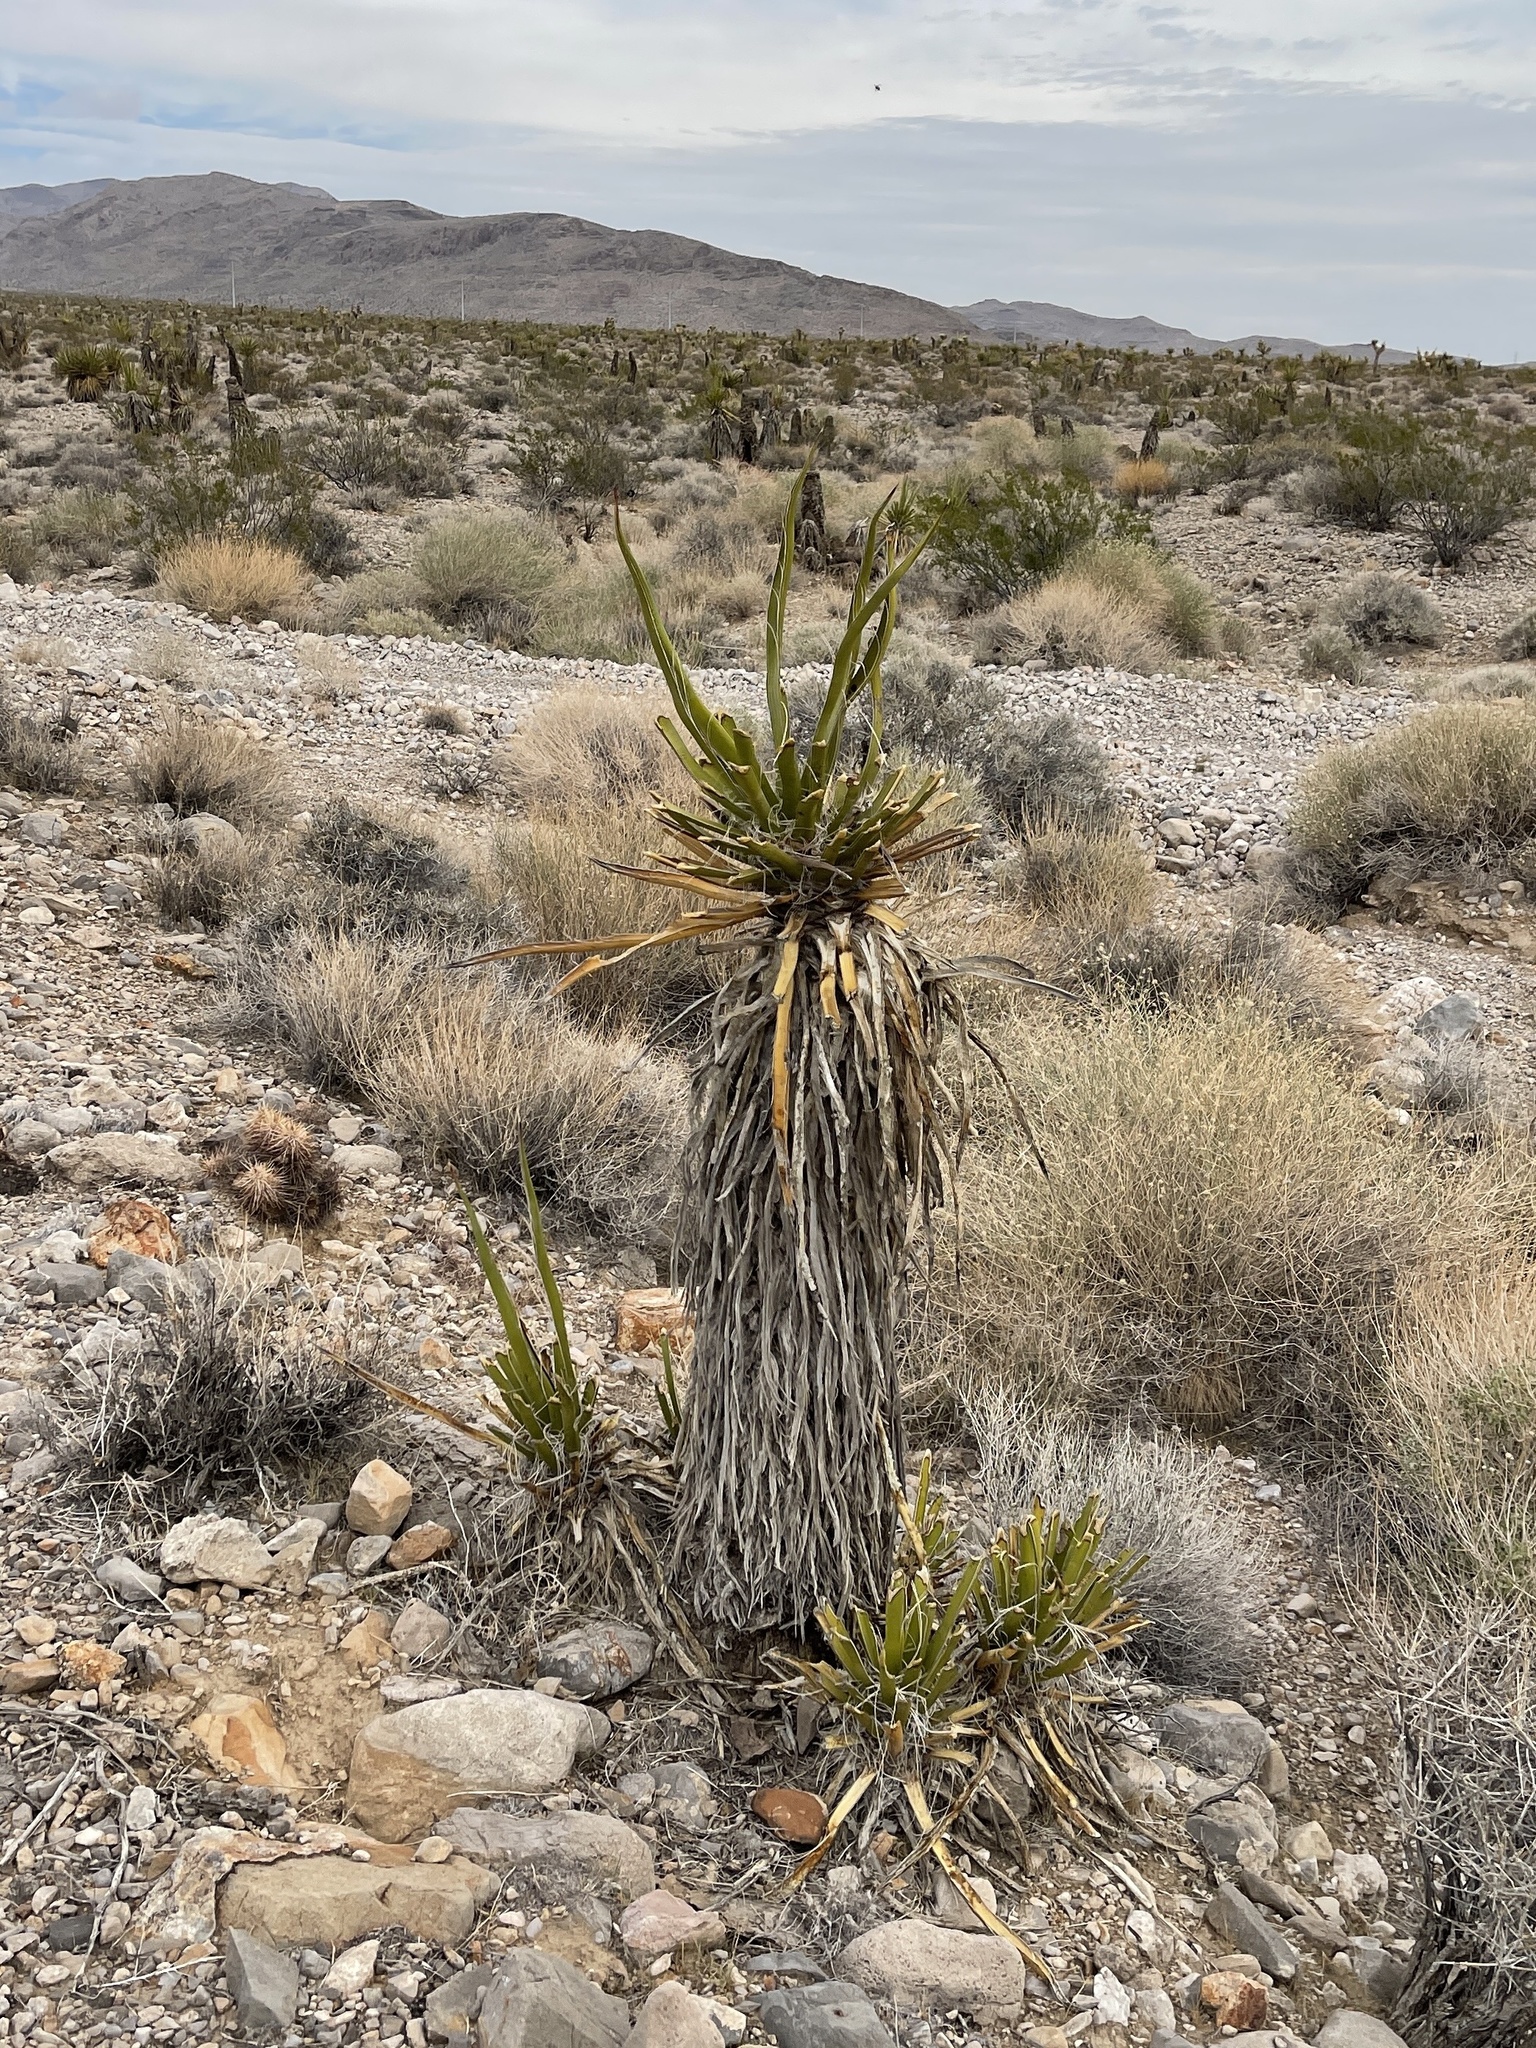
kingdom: Plantae
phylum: Tracheophyta
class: Liliopsida
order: Asparagales
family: Asparagaceae
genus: Yucca
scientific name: Yucca schidigera
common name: Mojave yucca
